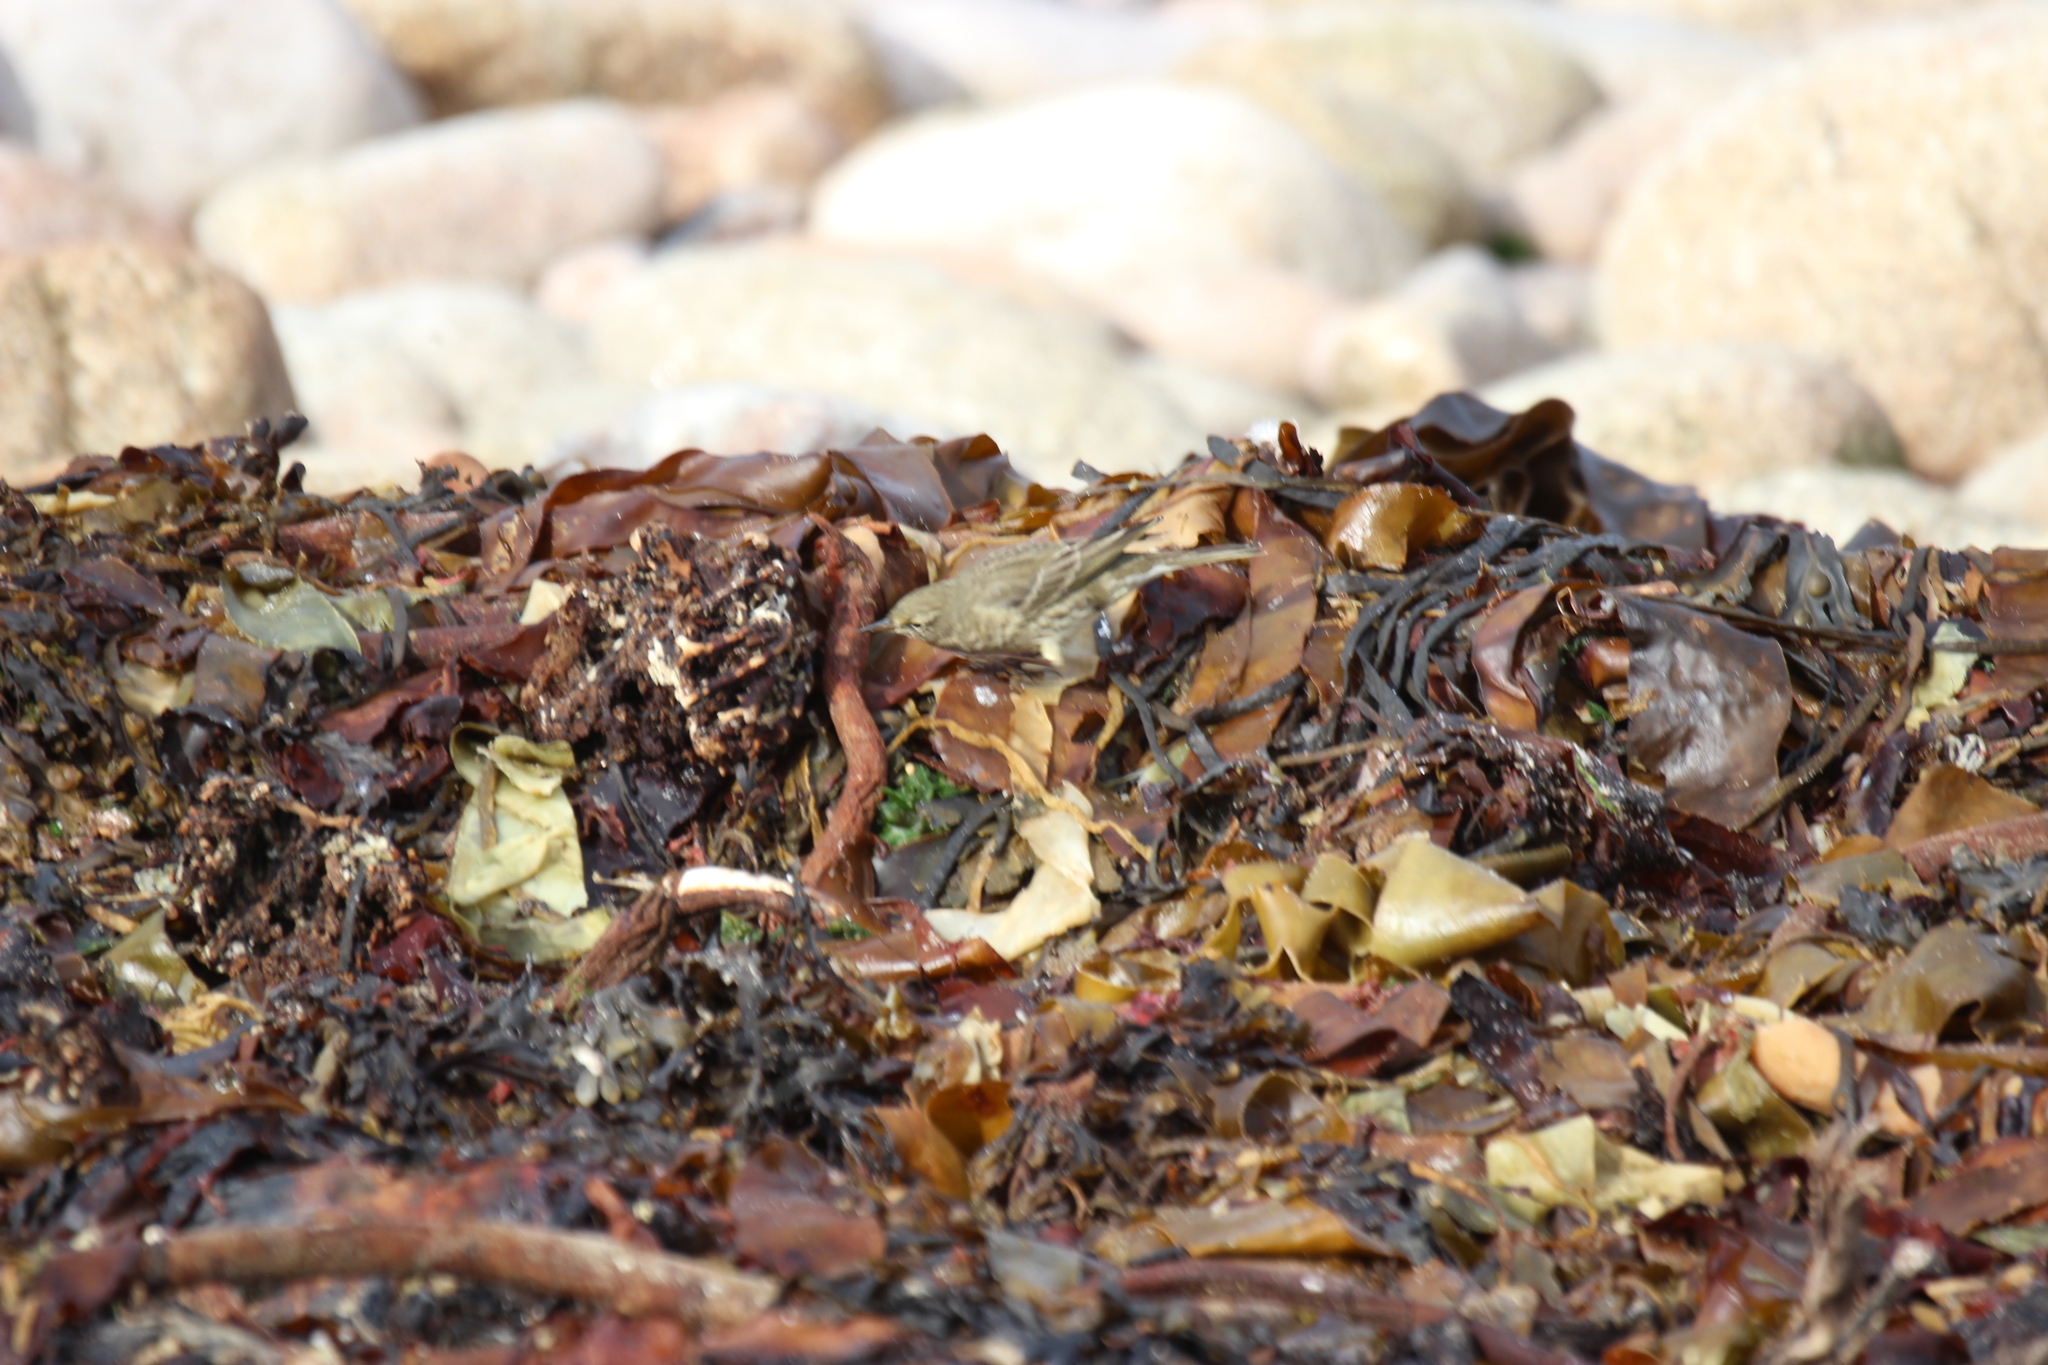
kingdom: Animalia
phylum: Chordata
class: Aves
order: Passeriformes
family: Motacillidae
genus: Anthus
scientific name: Anthus petrosus
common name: Eurasian rock pipit
